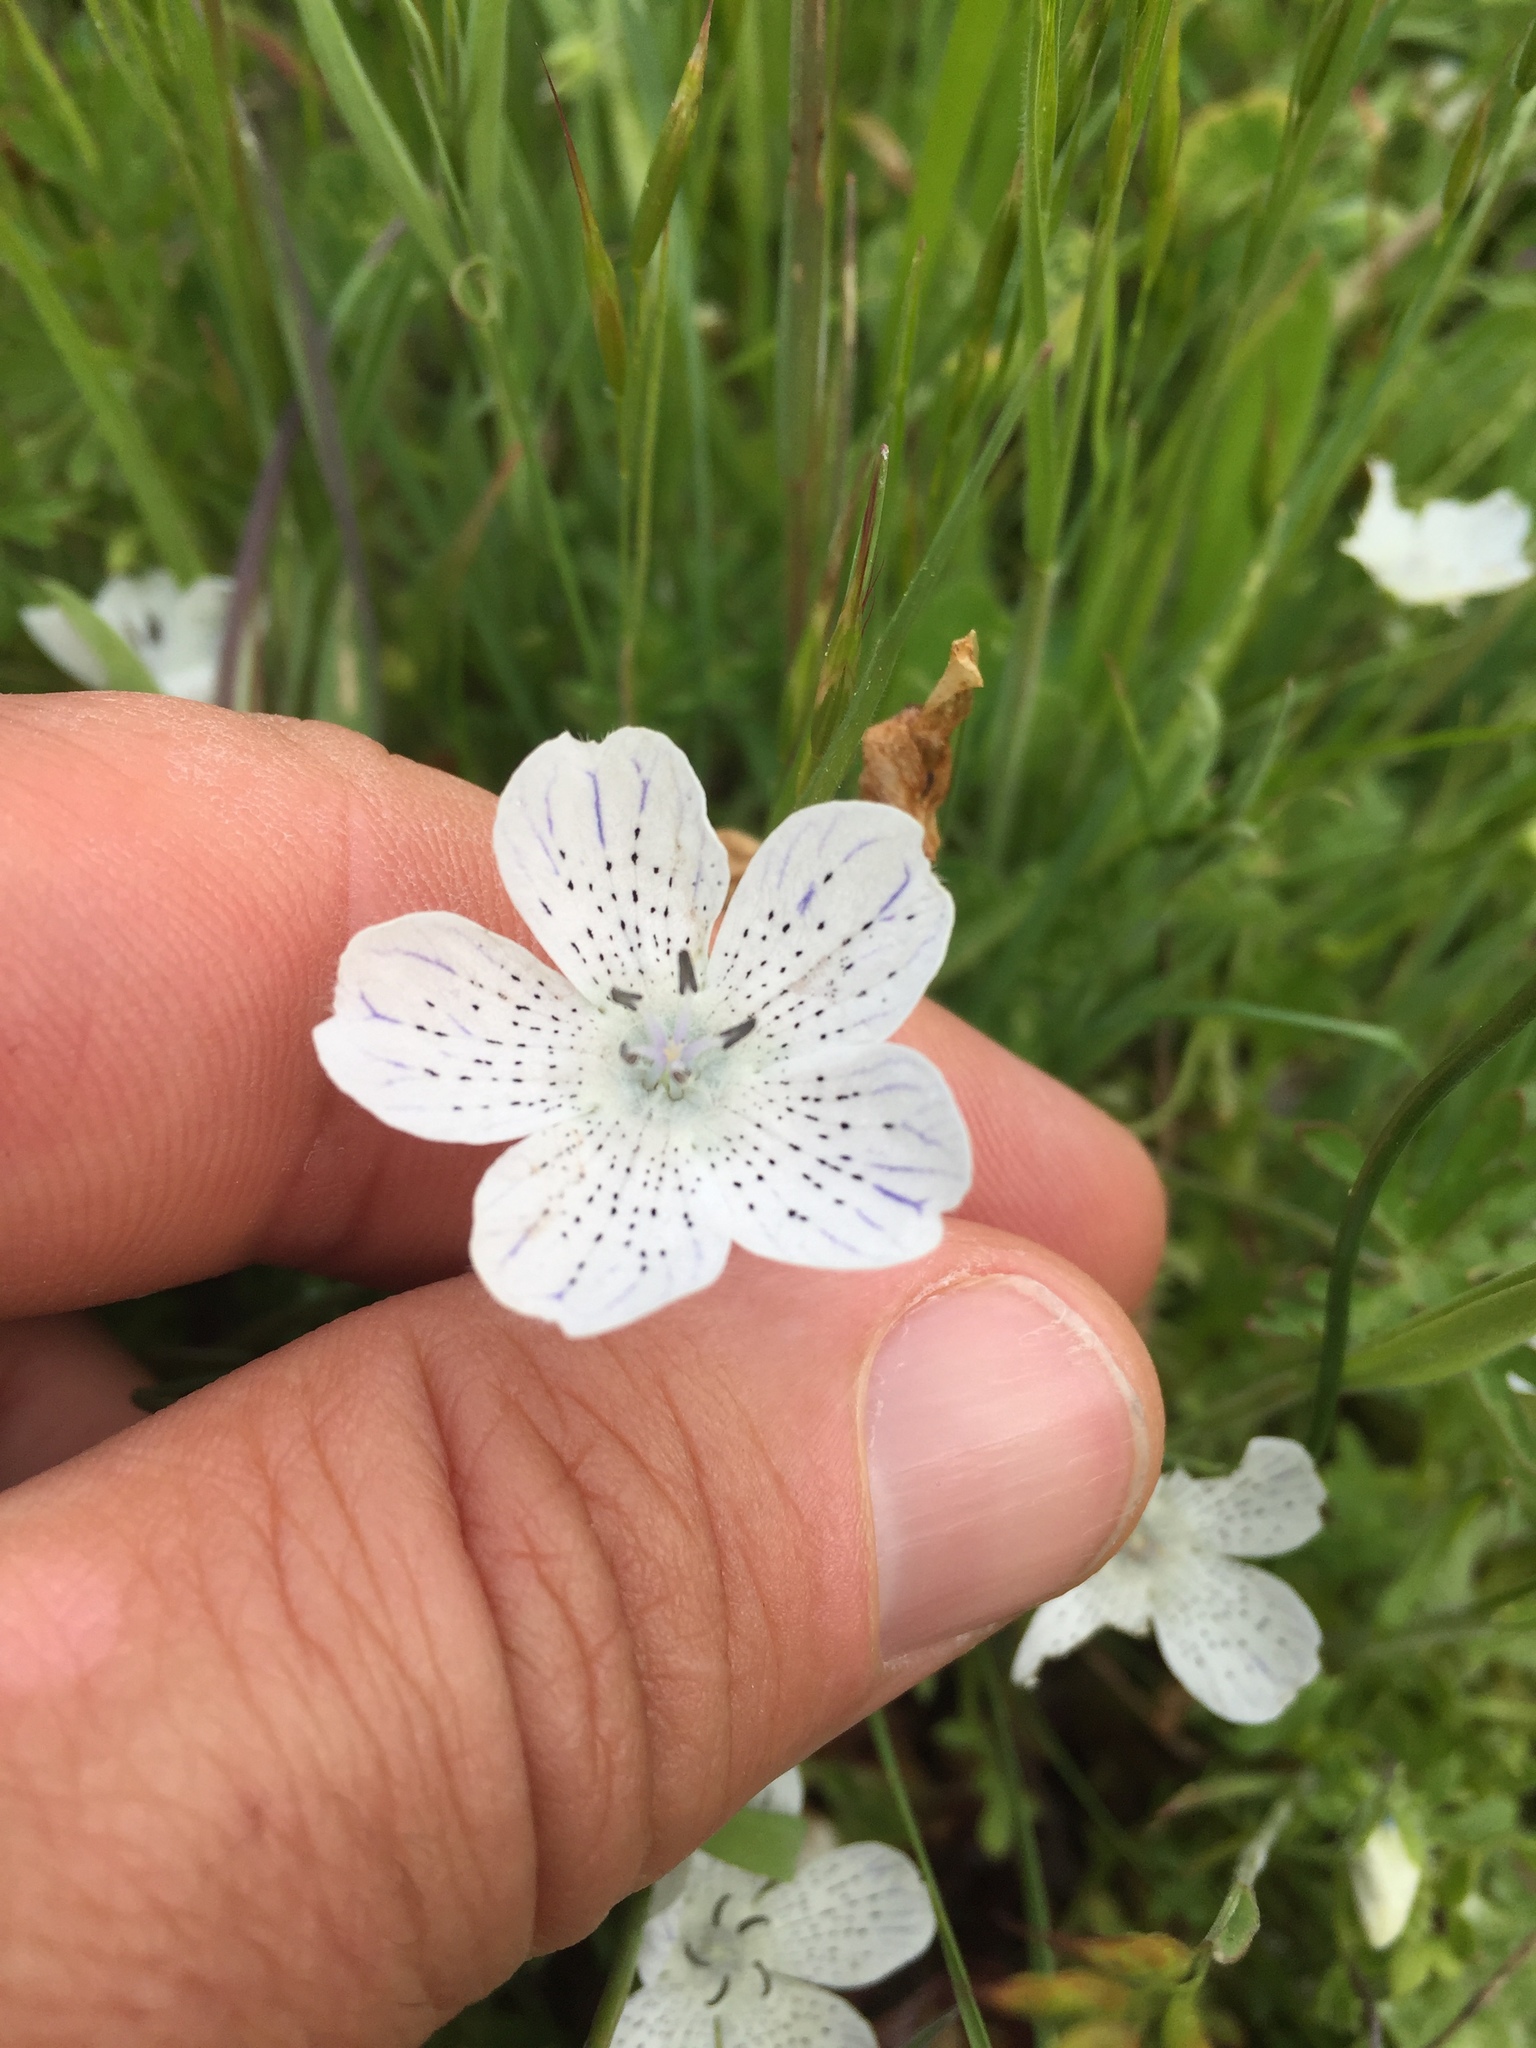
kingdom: Plantae
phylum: Tracheophyta
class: Magnoliopsida
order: Boraginales
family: Hydrophyllaceae
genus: Nemophila
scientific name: Nemophila menziesii
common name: Baby's-blue-eyes
